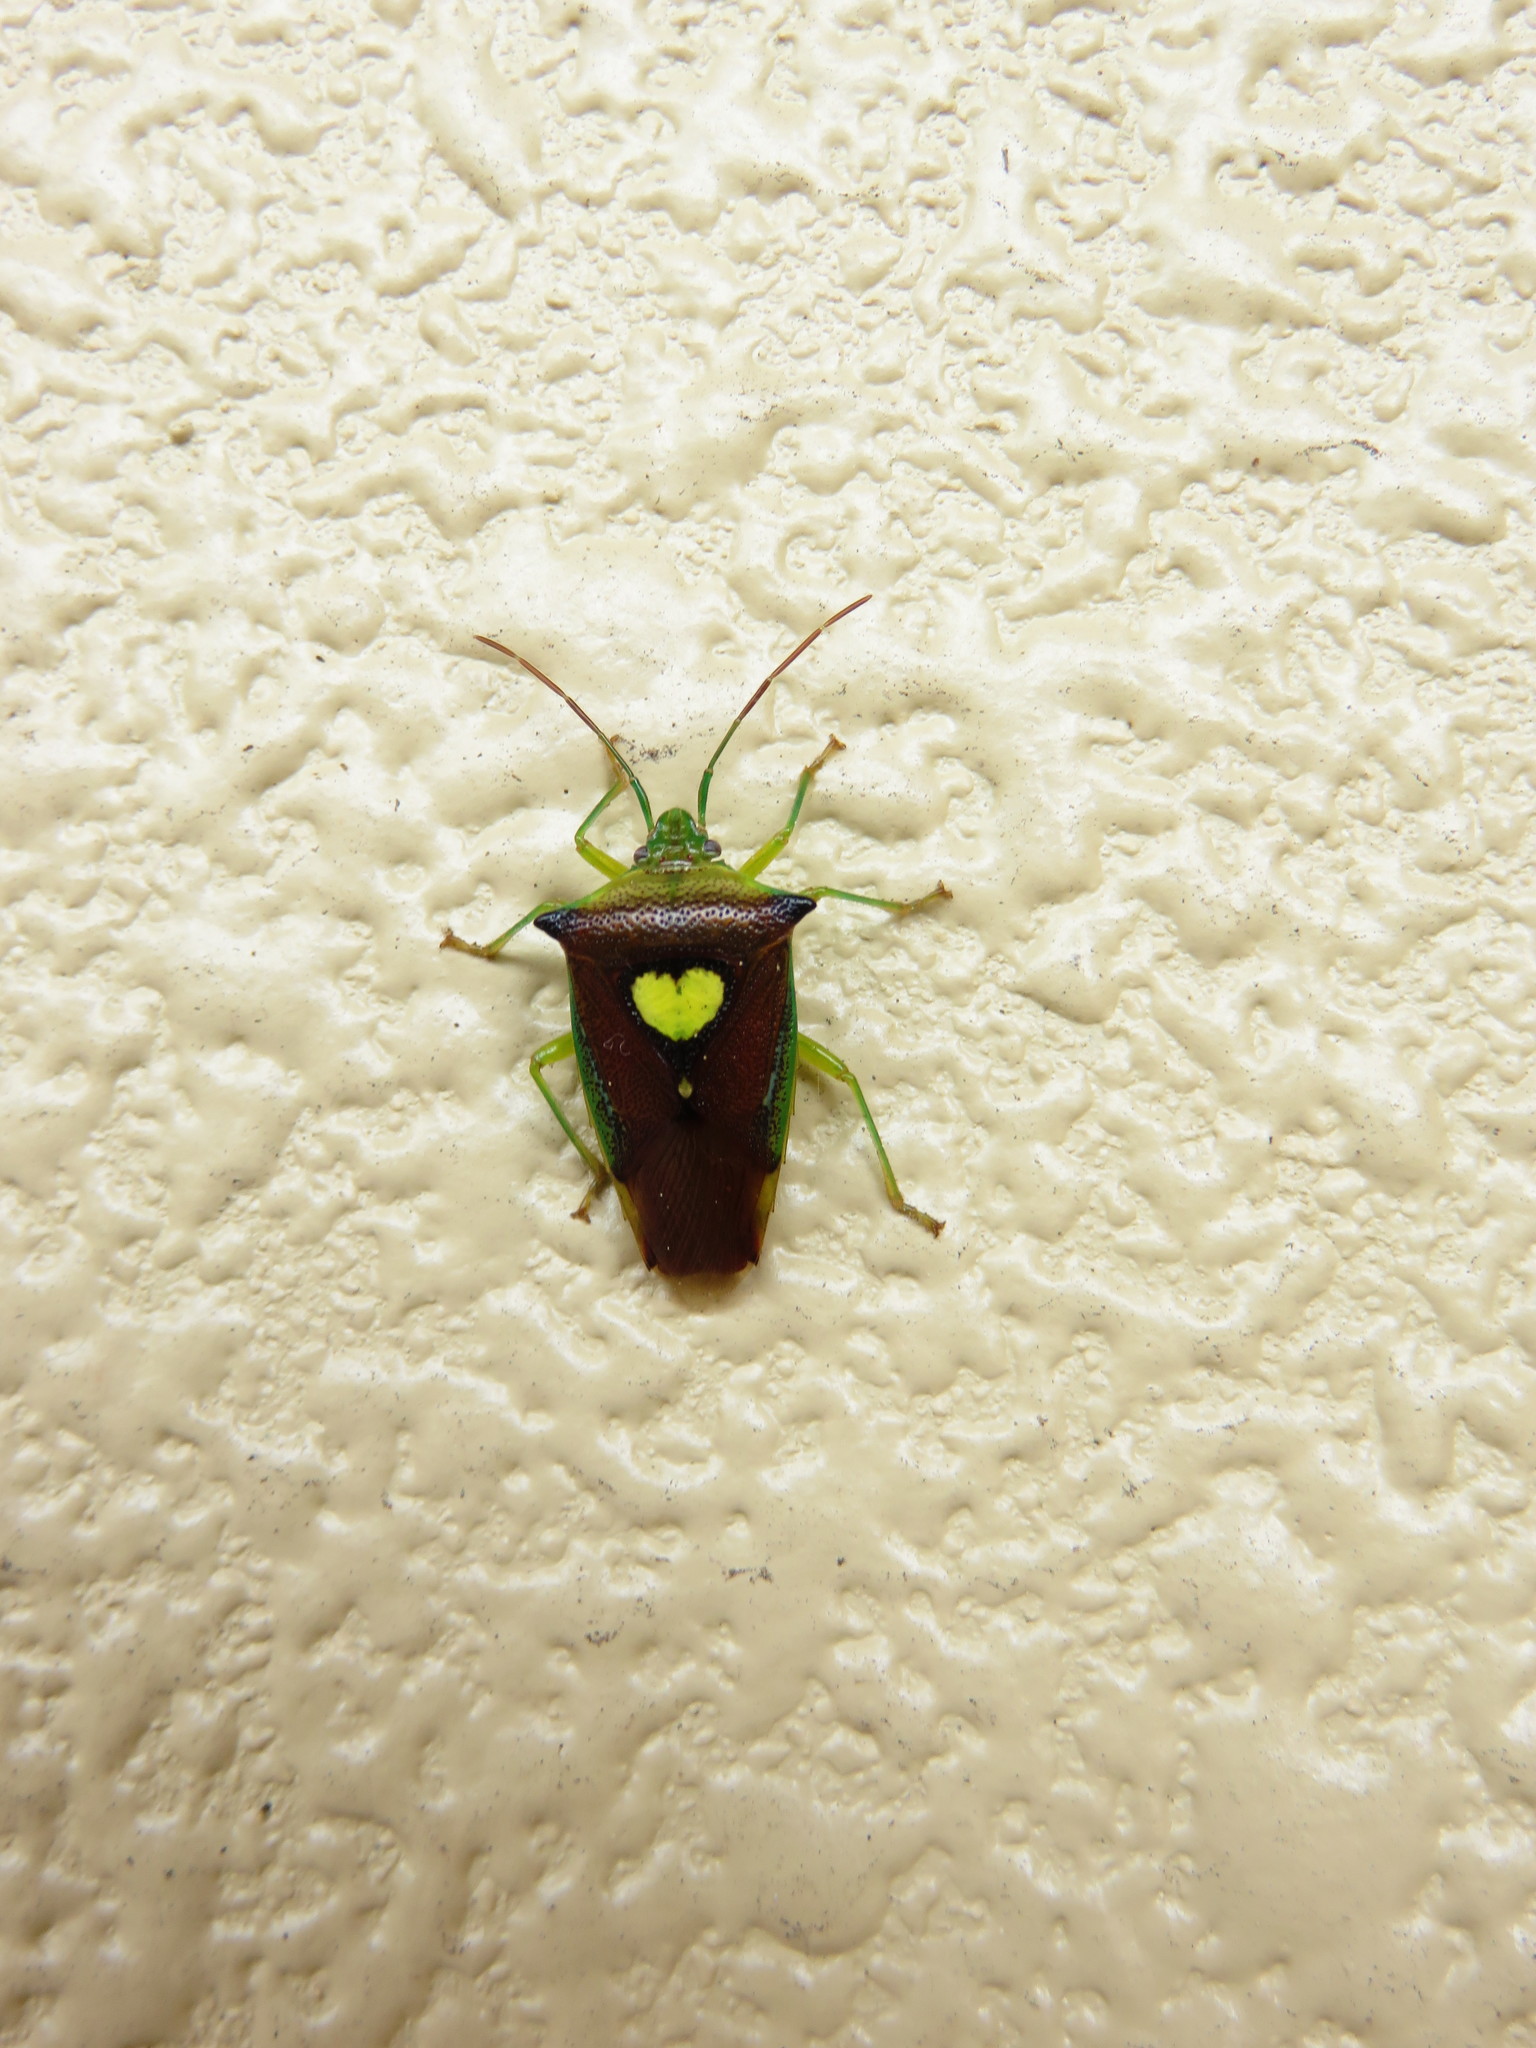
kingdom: Animalia
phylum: Arthropoda
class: Insecta
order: Hemiptera
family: Acanthosomatidae
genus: Sastragala
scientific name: Sastragala esakii
